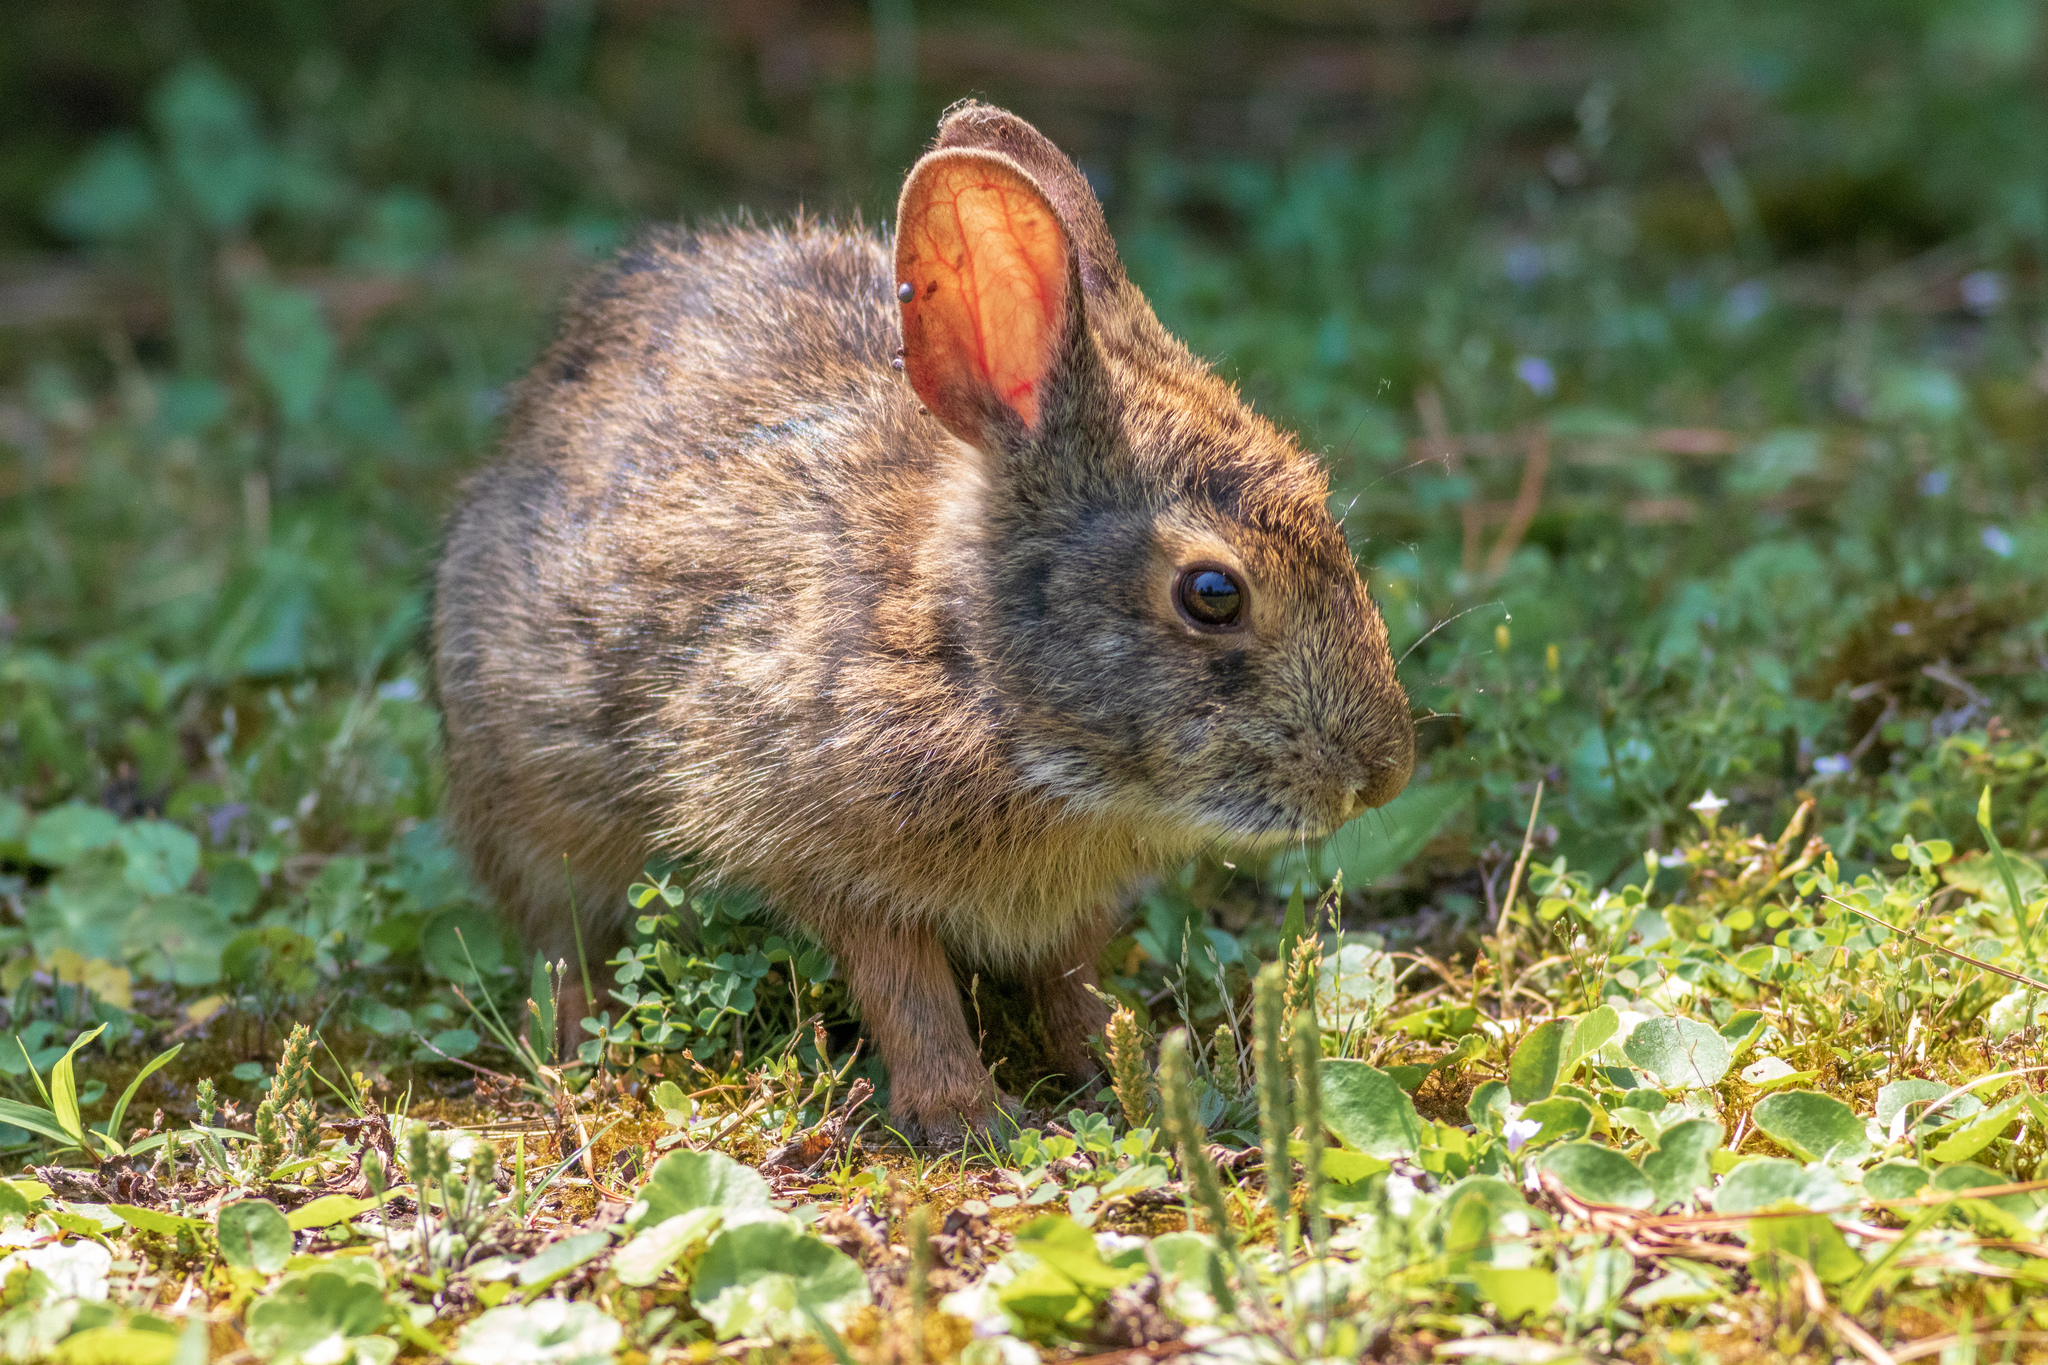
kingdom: Animalia
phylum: Chordata
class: Mammalia
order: Lagomorpha
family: Leporidae
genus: Sylvilagus
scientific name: Sylvilagus palustris
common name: Marsh rabbit
